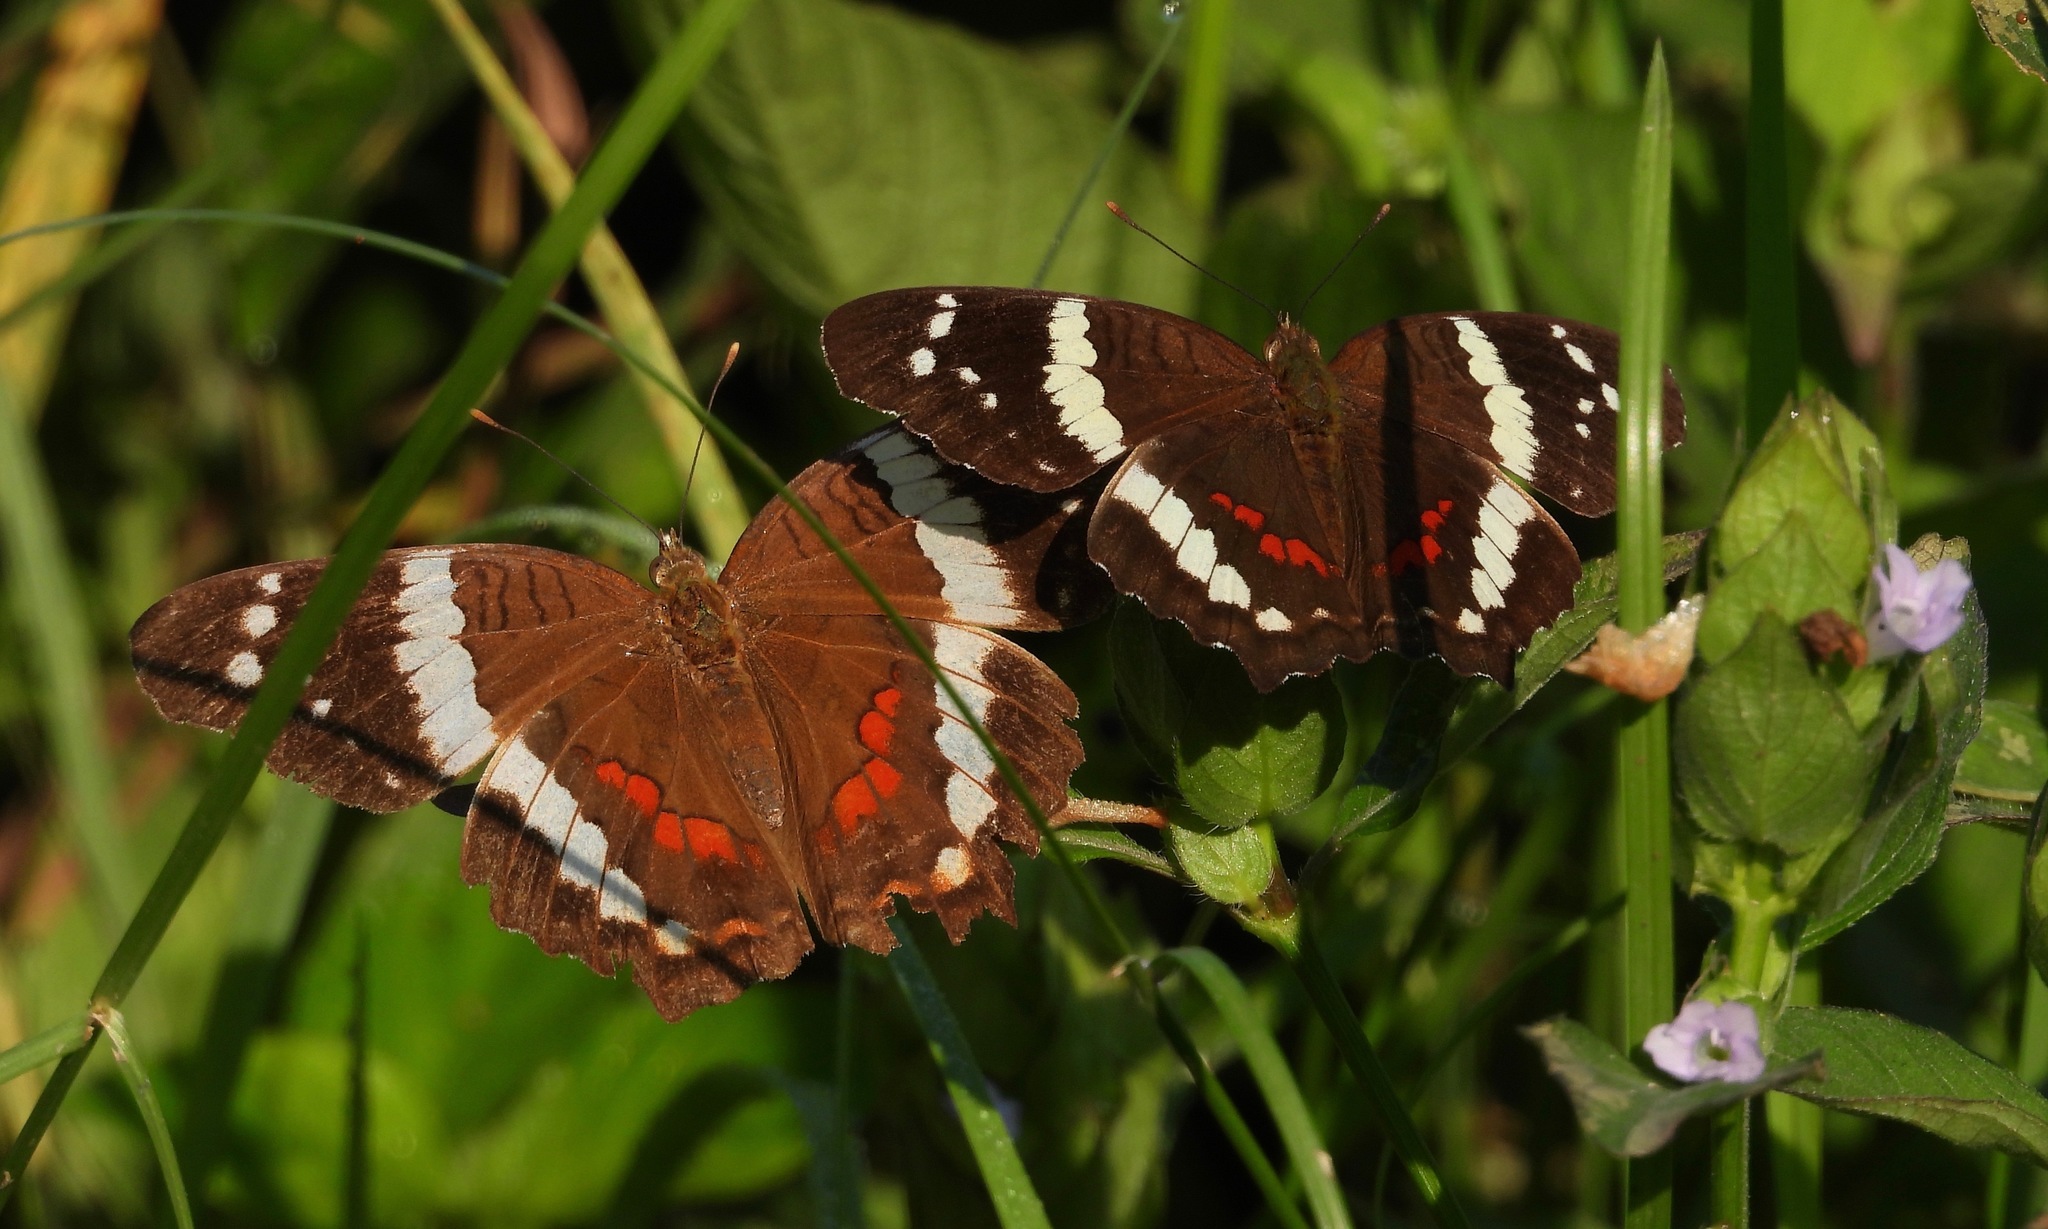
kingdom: Animalia
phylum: Arthropoda
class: Insecta
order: Lepidoptera
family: Nymphalidae
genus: Anartia
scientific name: Anartia fatima
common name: Banded peacock
